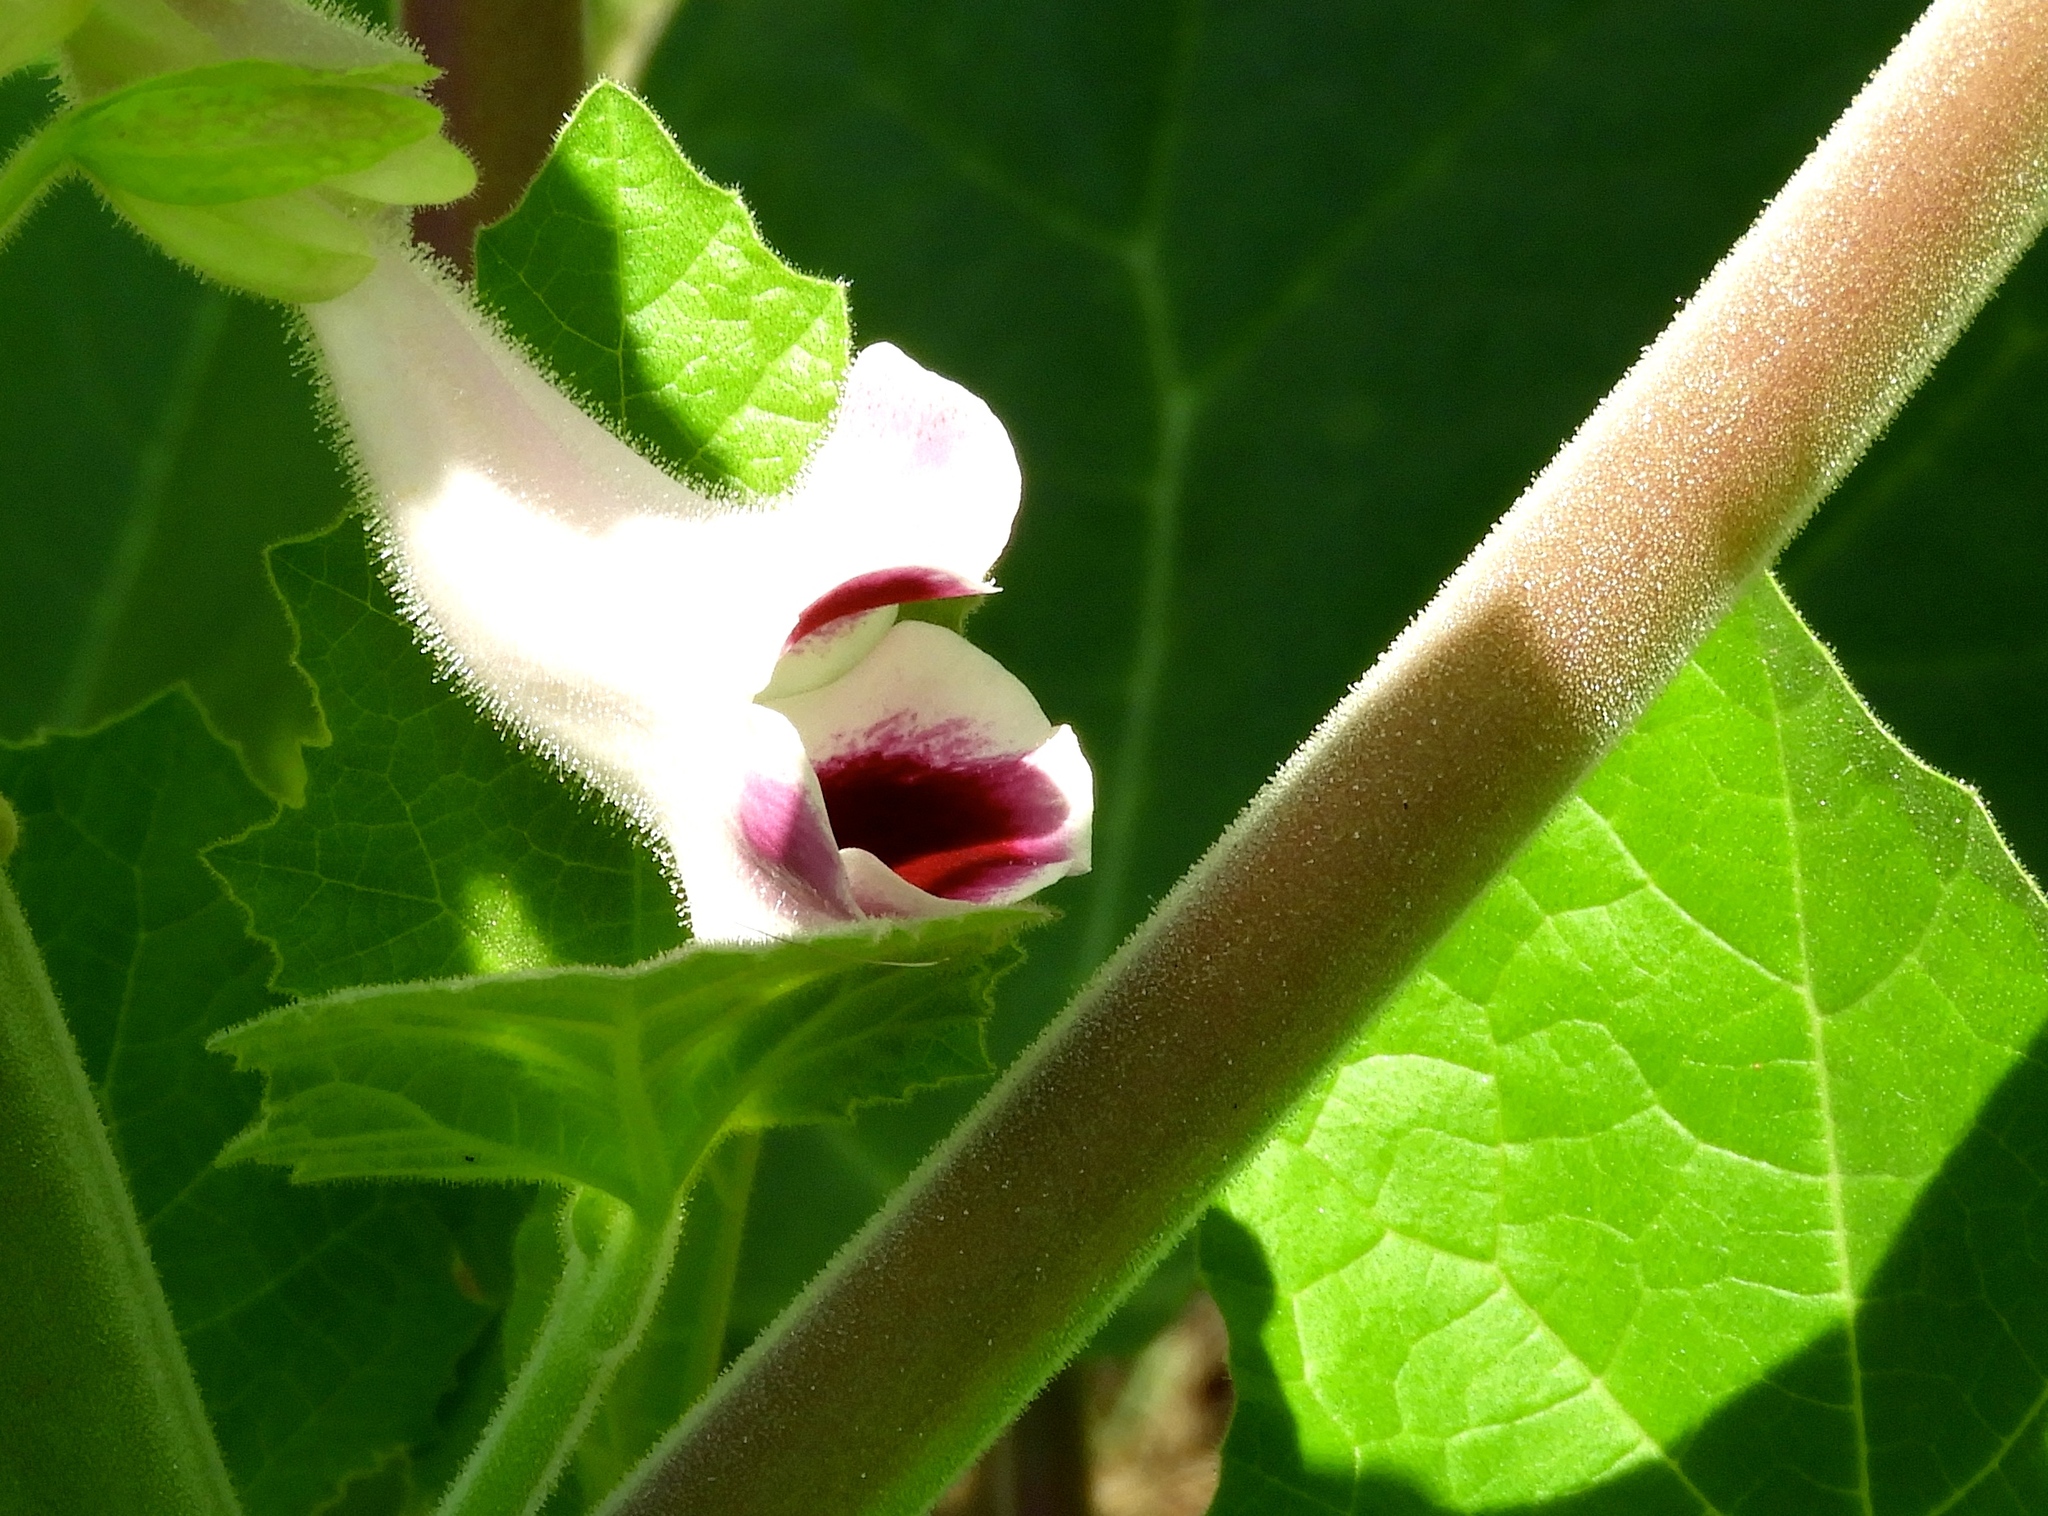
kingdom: Plantae
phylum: Tracheophyta
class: Magnoliopsida
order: Lamiales
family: Martyniaceae
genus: Martynia
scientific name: Martynia annua
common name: Tiger's-claw
